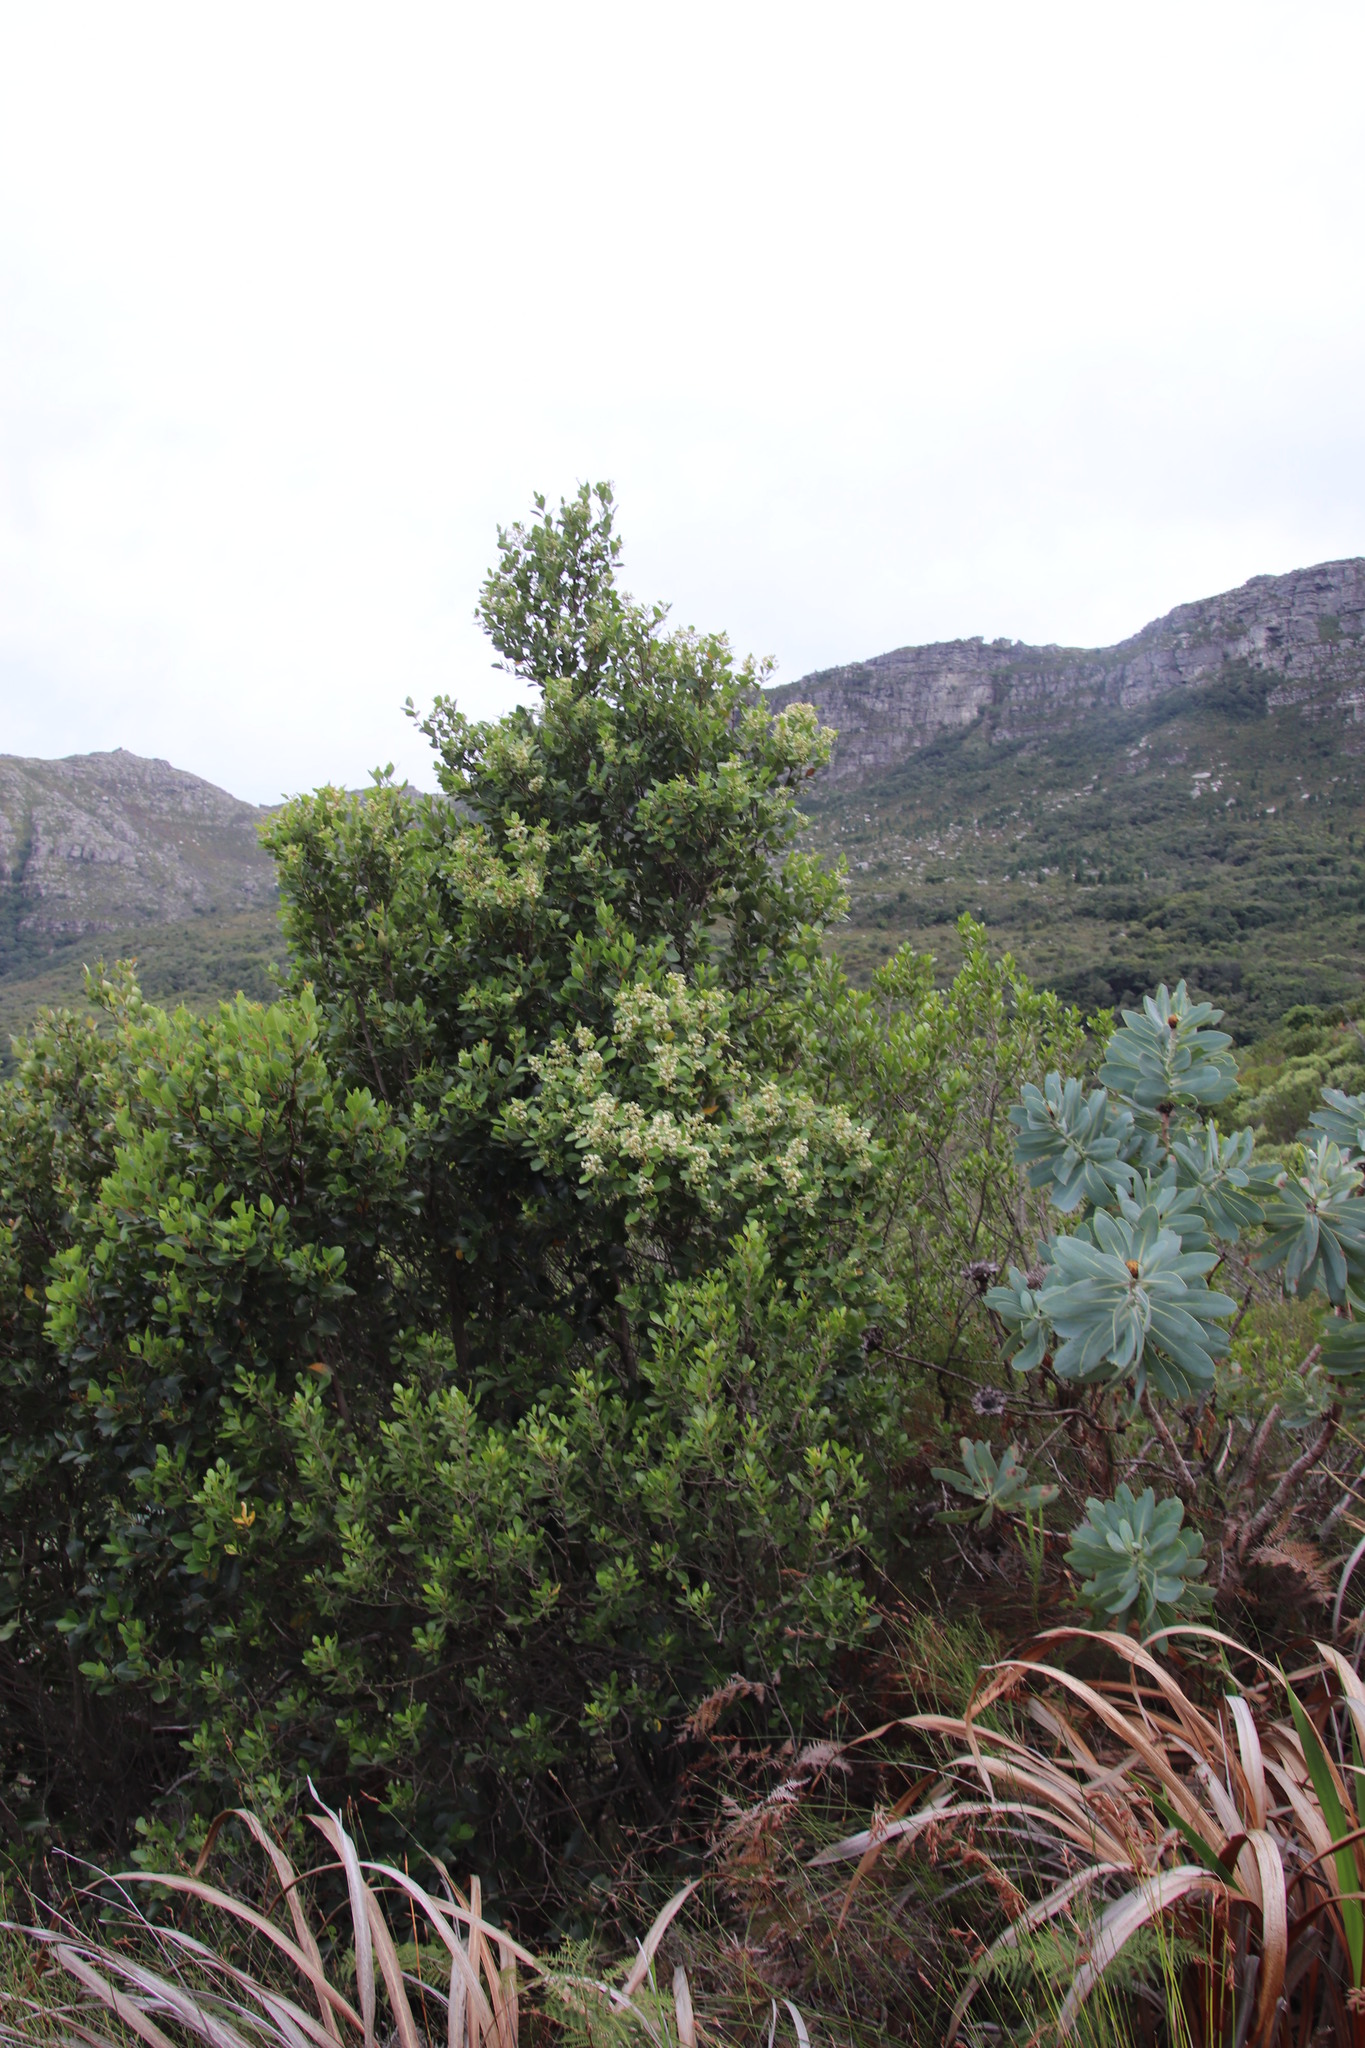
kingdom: Plantae
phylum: Tracheophyta
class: Magnoliopsida
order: Celastrales
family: Celastraceae
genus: Cassine
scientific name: Cassine peragua
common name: Cape saffron
